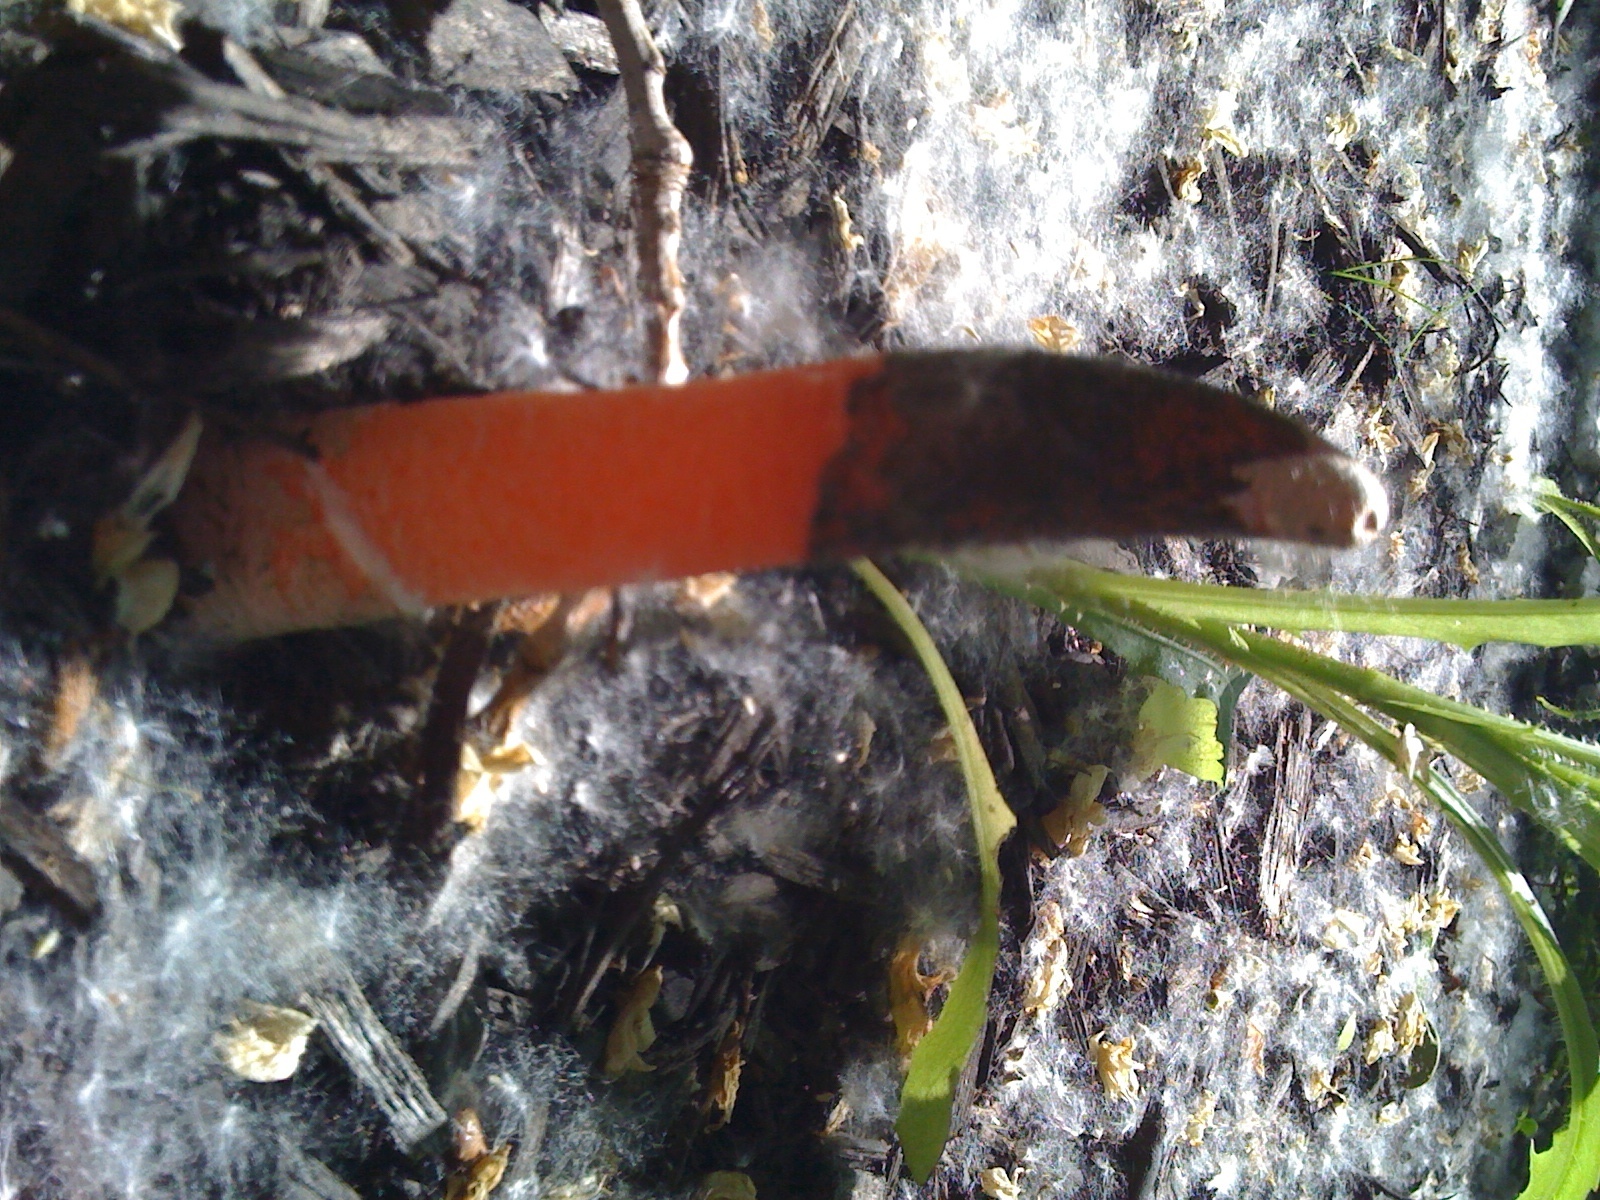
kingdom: Fungi
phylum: Basidiomycota
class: Agaricomycetes
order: Phallales
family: Phallaceae
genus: Mutinus
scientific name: Mutinus elegans
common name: Devil's dipstick
